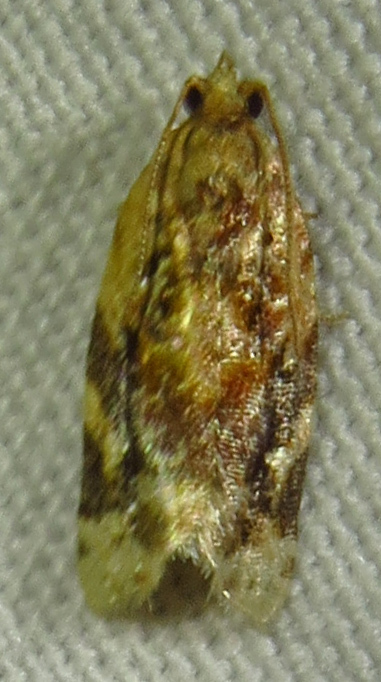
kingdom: Animalia
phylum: Arthropoda
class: Insecta
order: Lepidoptera
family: Tortricidae
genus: Argyrotaenia
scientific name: Argyrotaenia velutinana
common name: Red-banded leafroller moth
